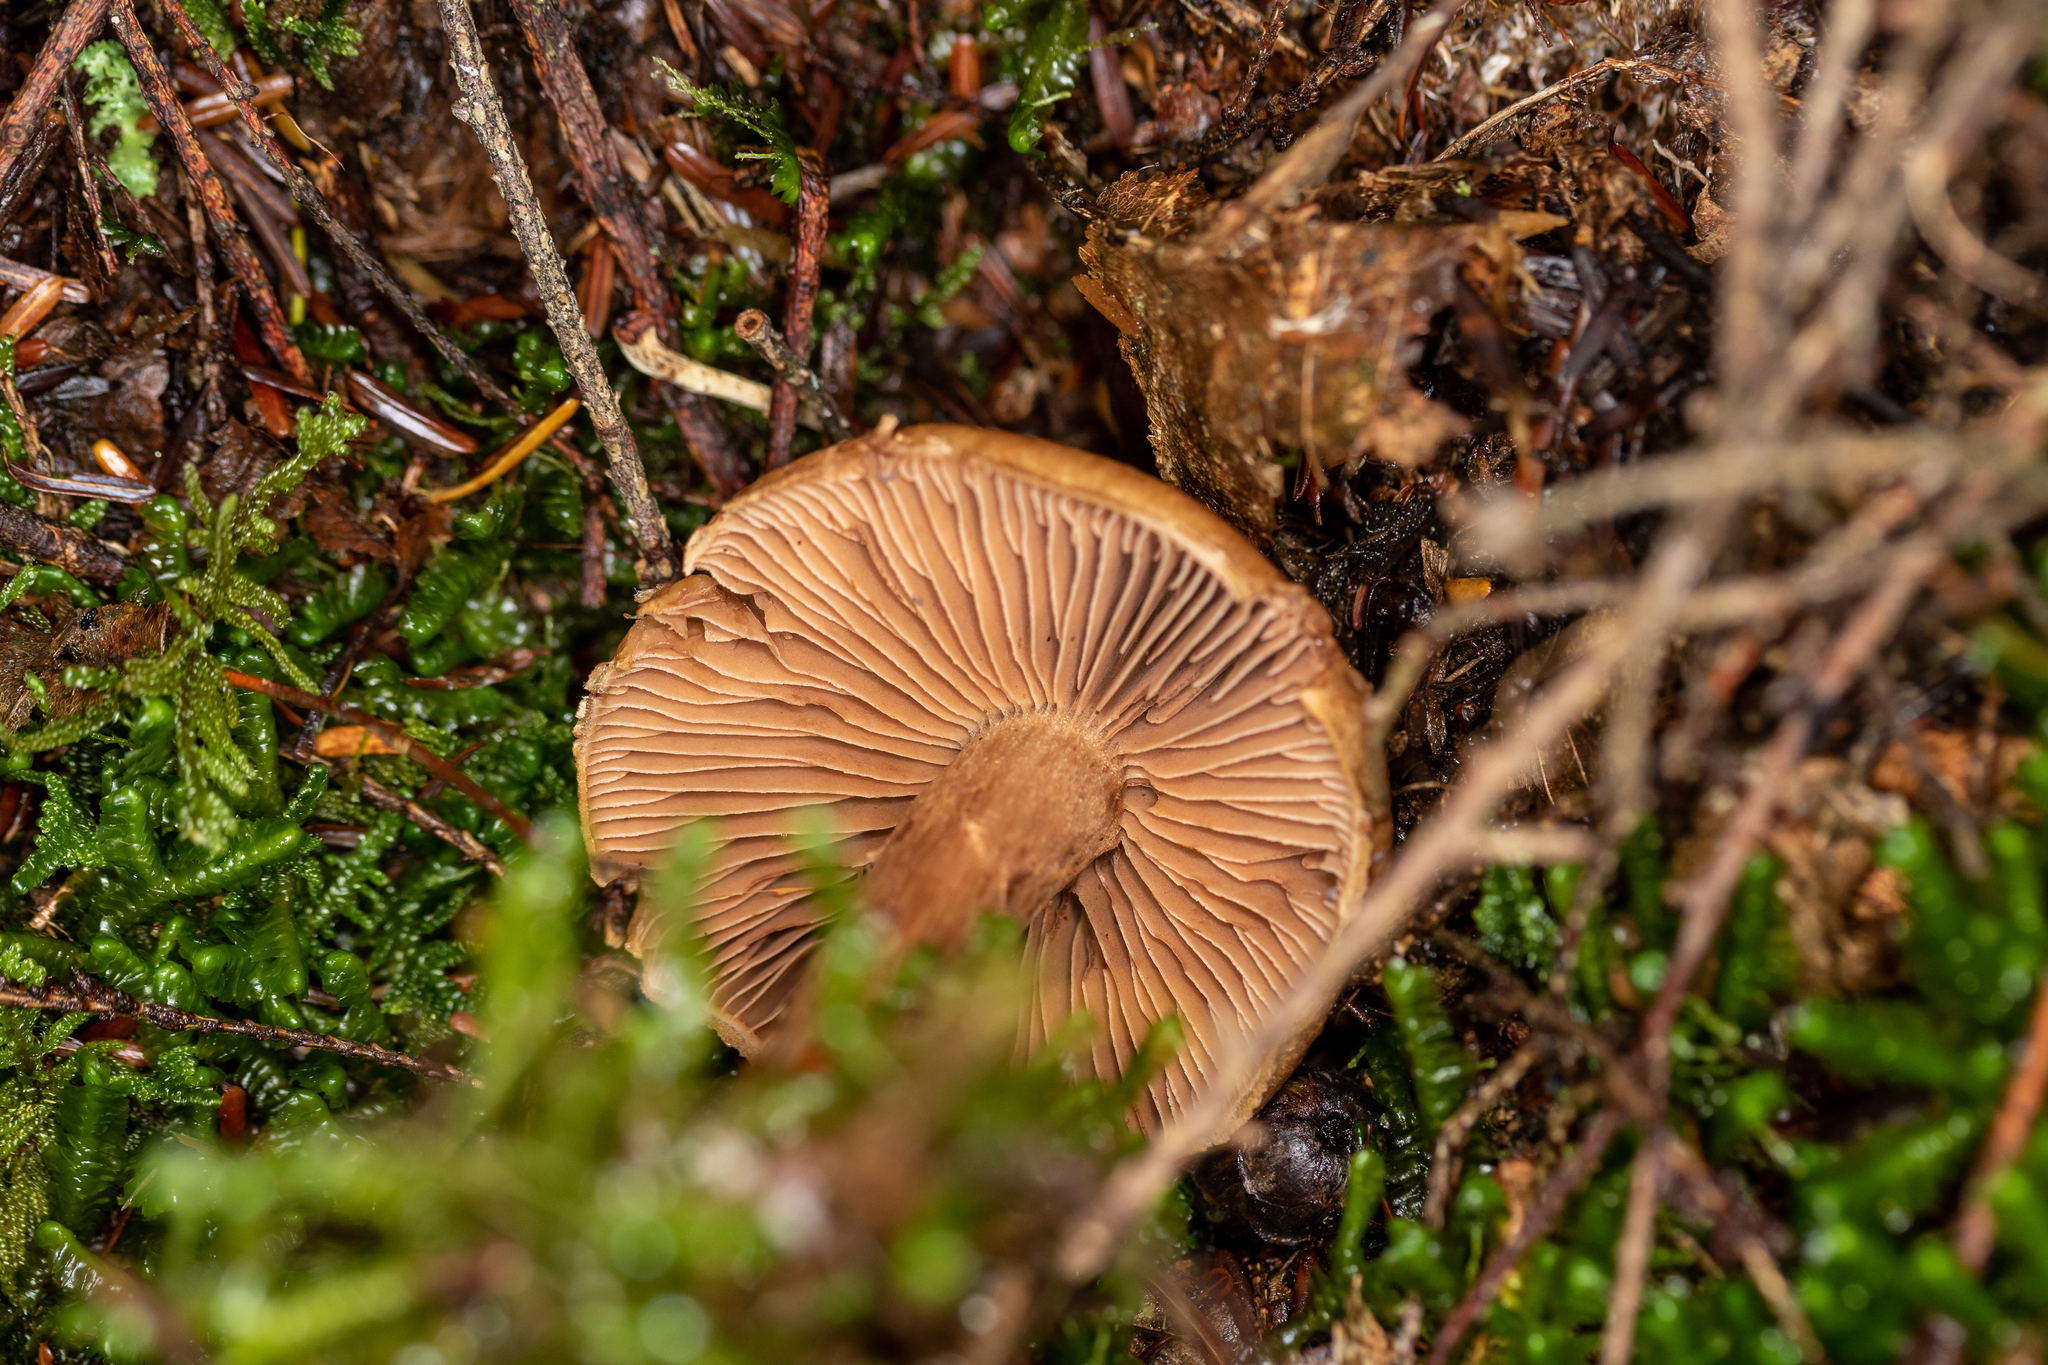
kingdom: Fungi
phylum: Basidiomycota
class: Agaricomycetes
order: Agaricales
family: Cortinariaceae
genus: Cortinarius
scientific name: Cortinarius armillatus
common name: Red banded webcap
